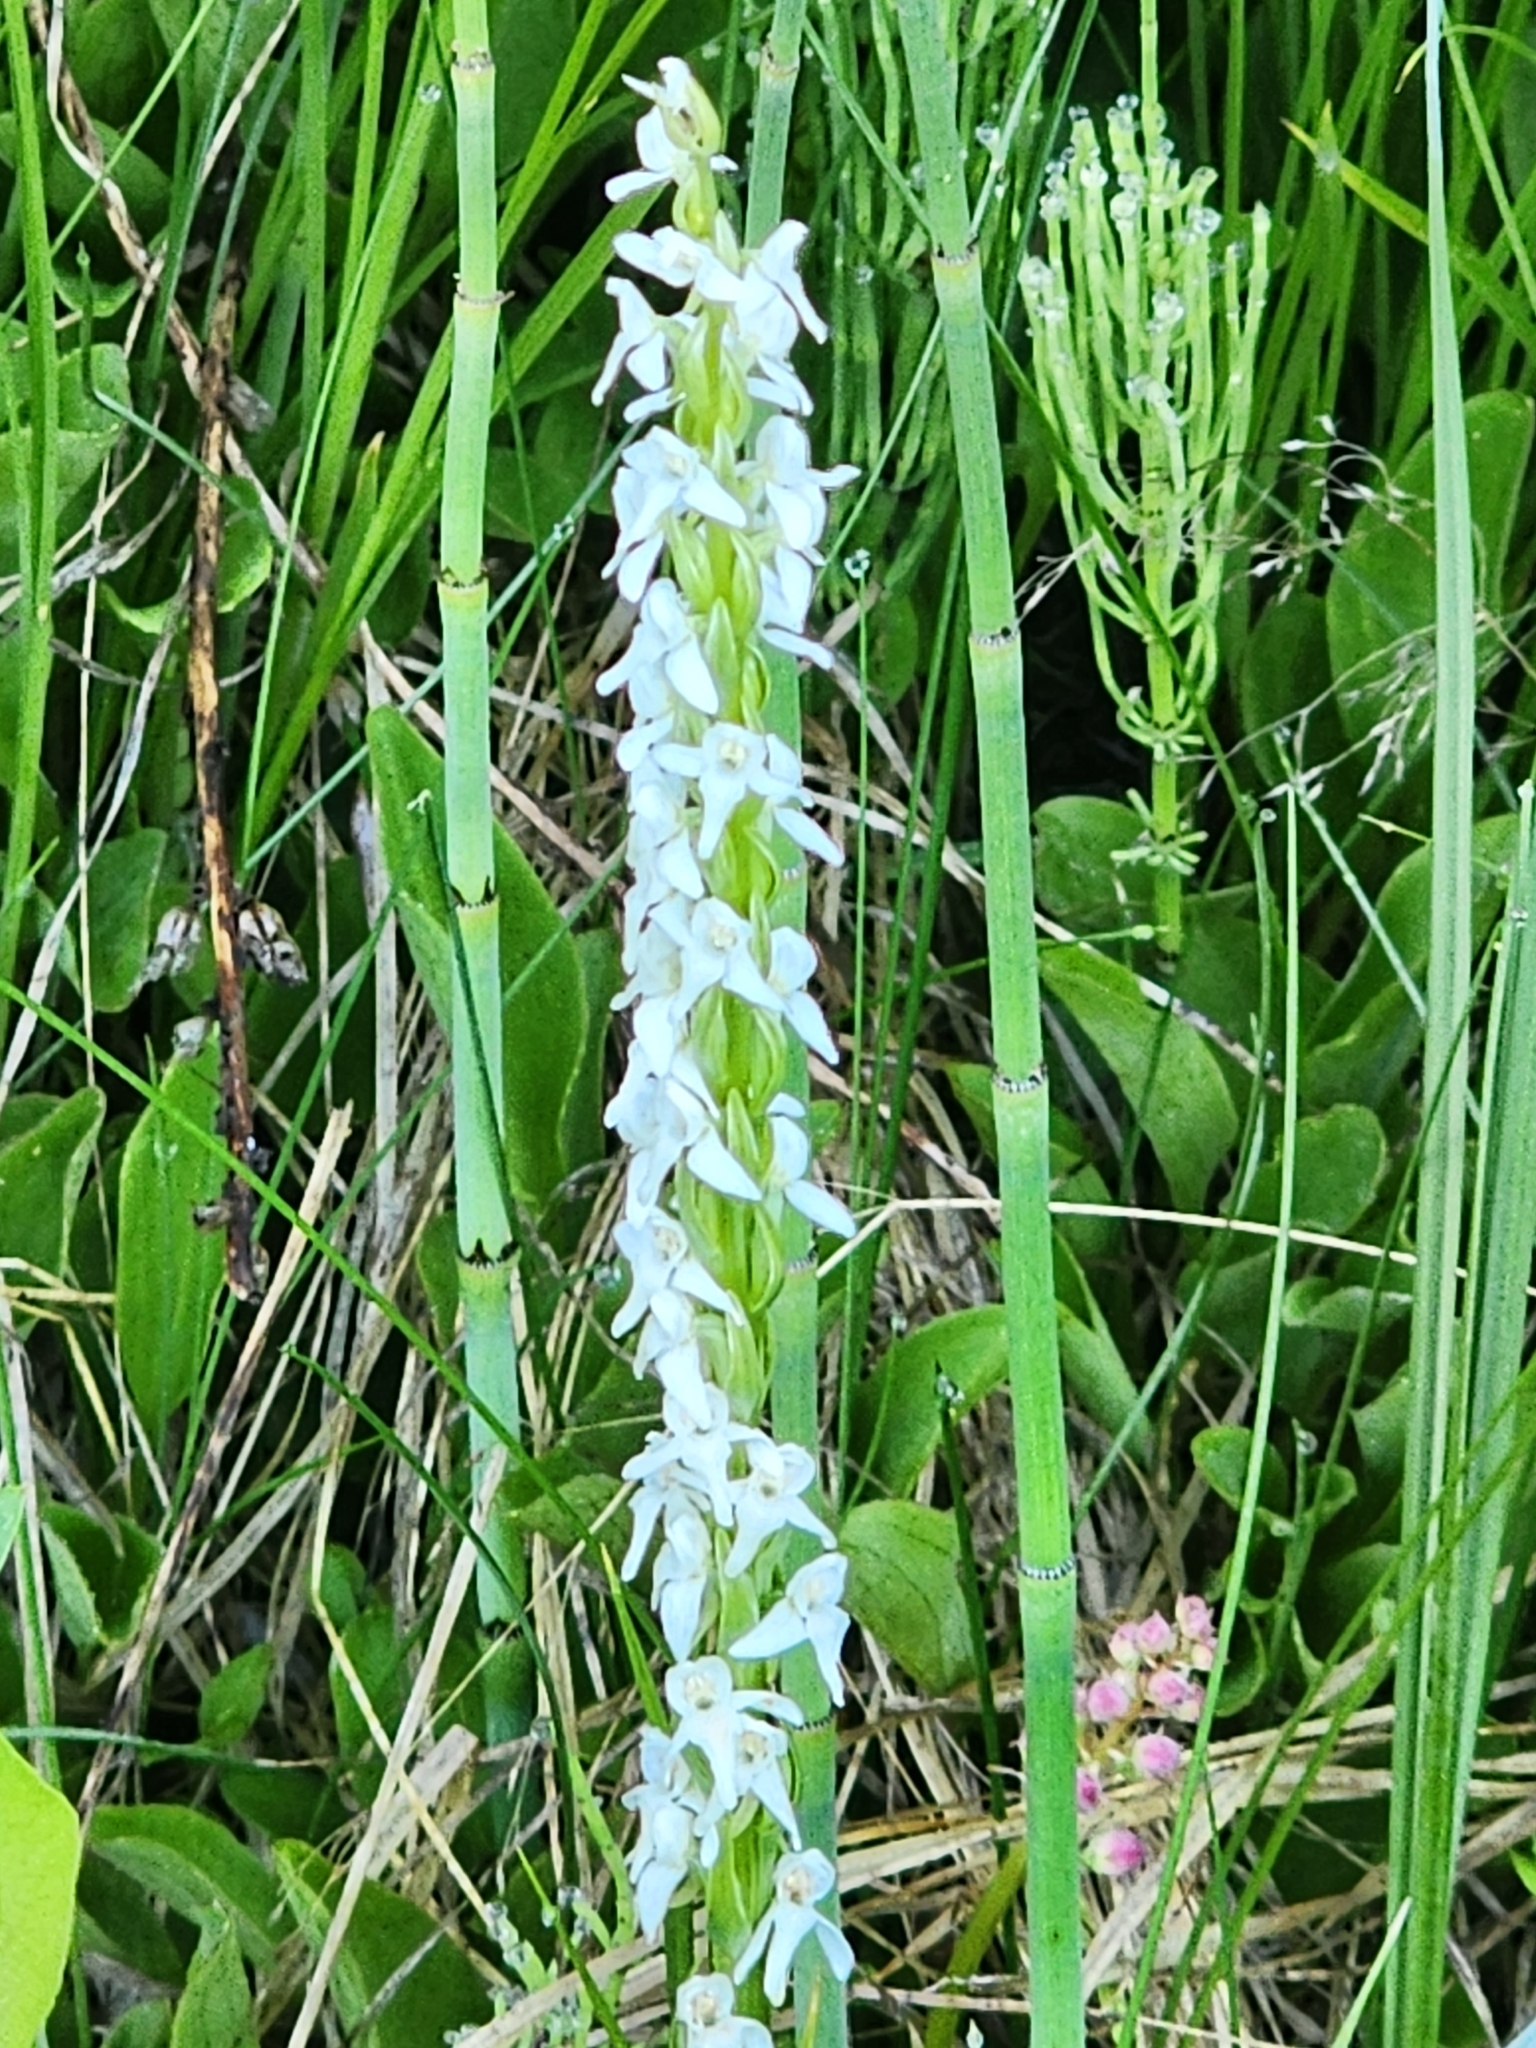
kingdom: Plantae
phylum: Tracheophyta
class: Liliopsida
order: Asparagales
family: Orchidaceae
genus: Platanthera
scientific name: Platanthera dilatata
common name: Bog candles
